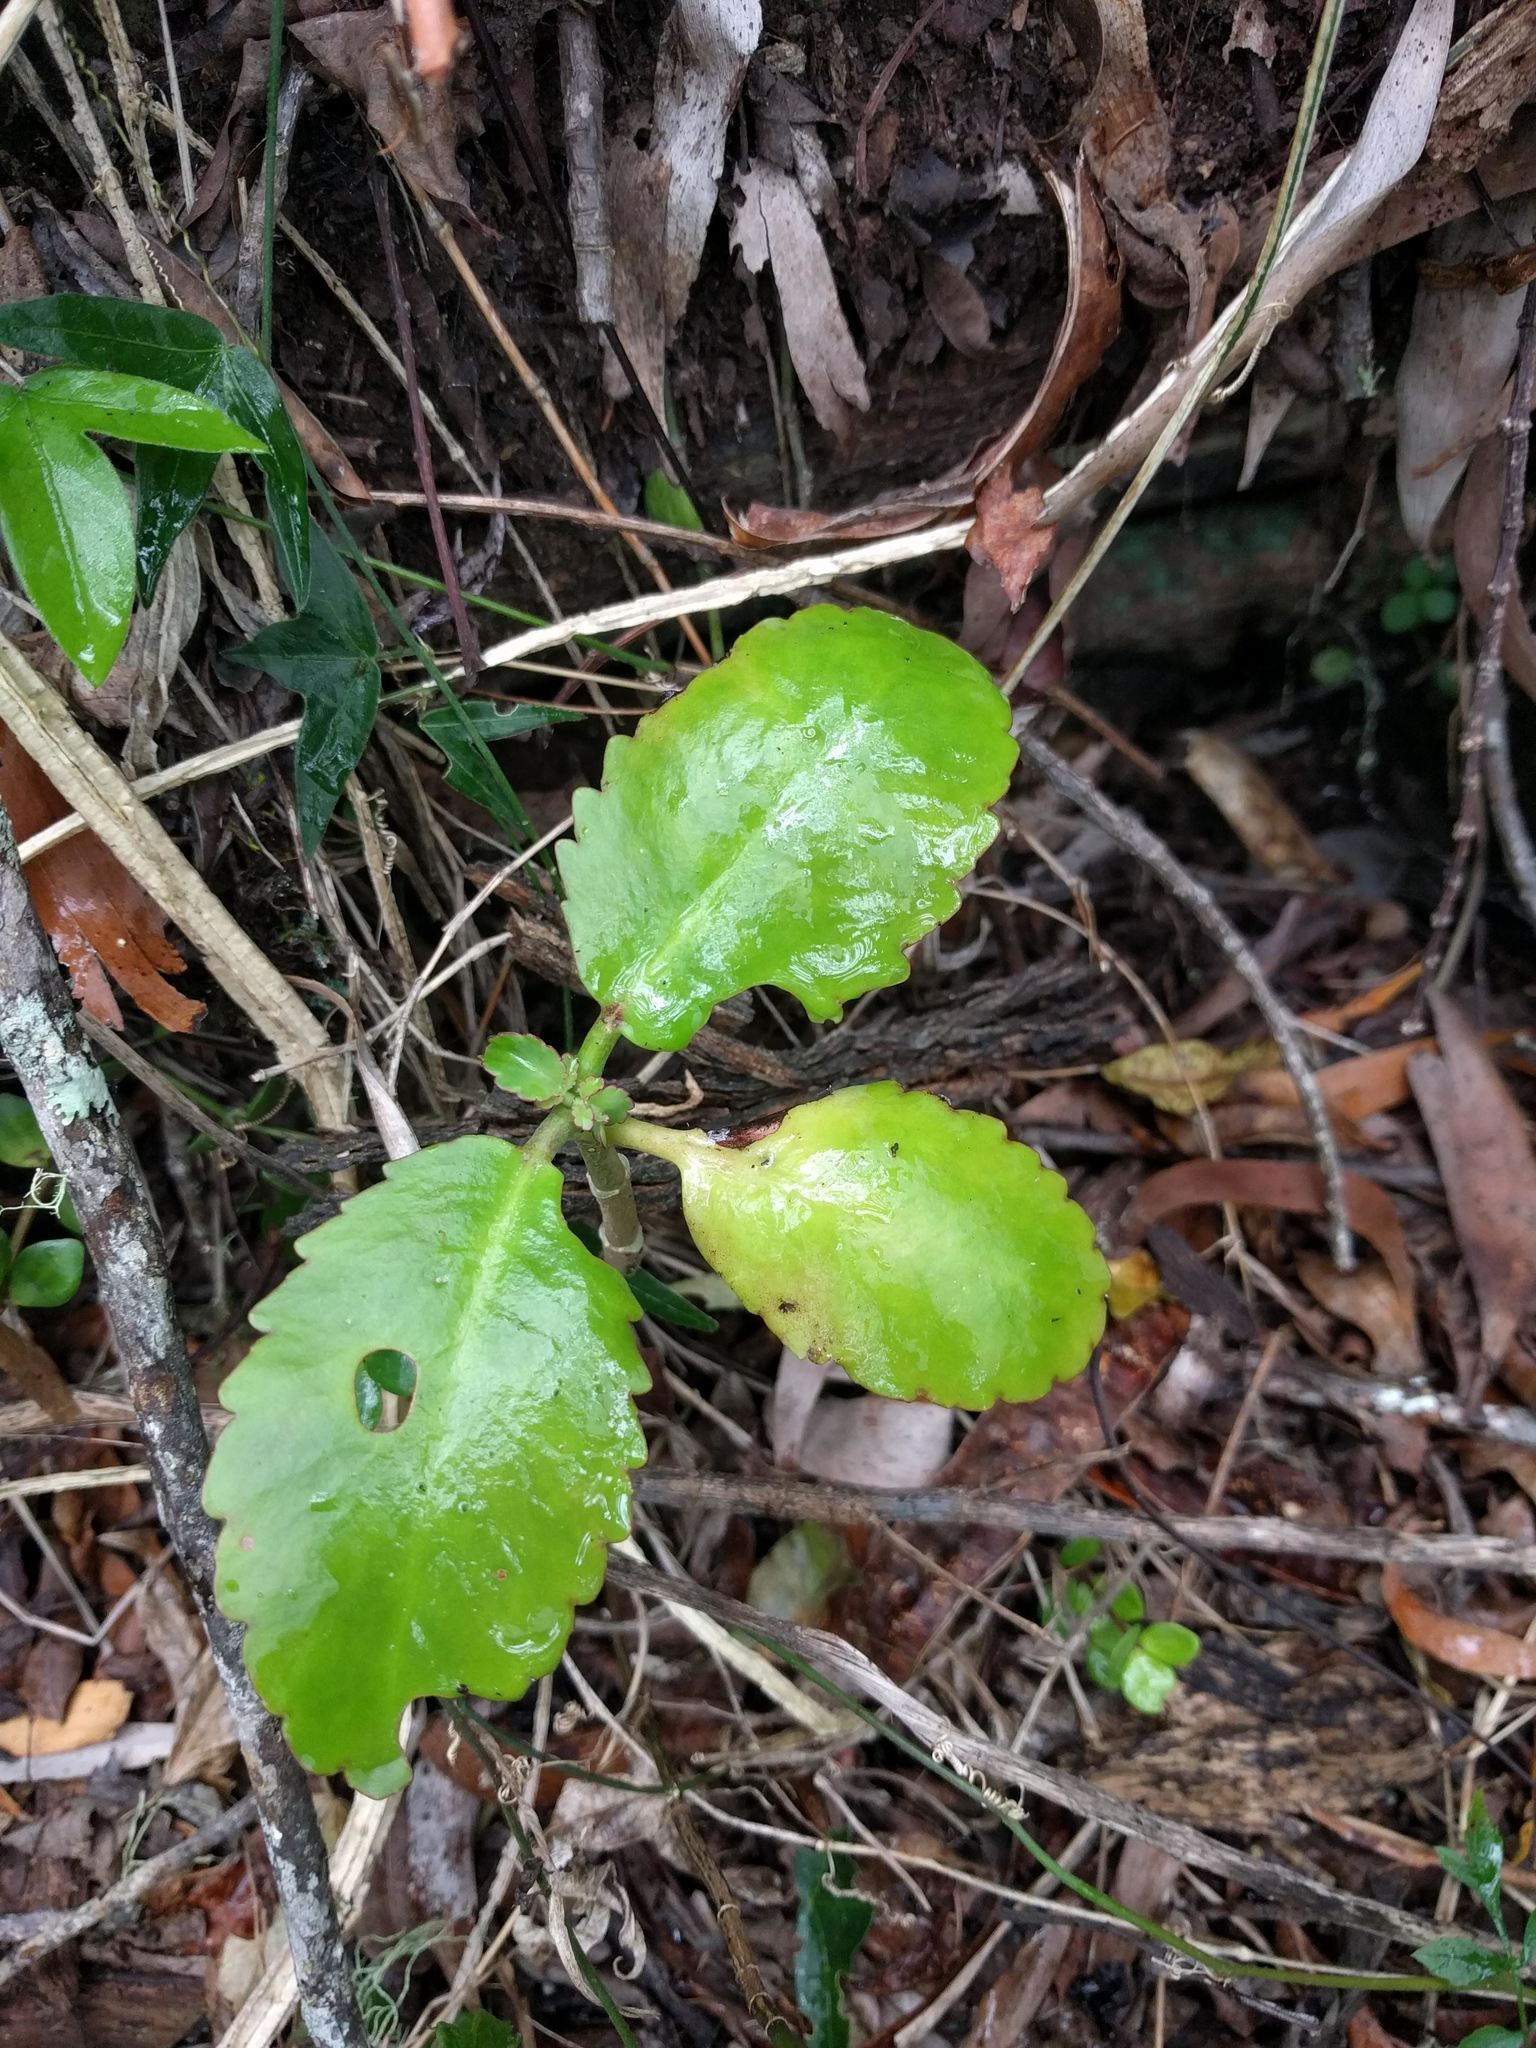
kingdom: Plantae
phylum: Tracheophyta
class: Magnoliopsida
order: Saxifragales
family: Crassulaceae
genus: Kalanchoe
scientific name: Kalanchoe pinnata
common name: Cathedral bells
